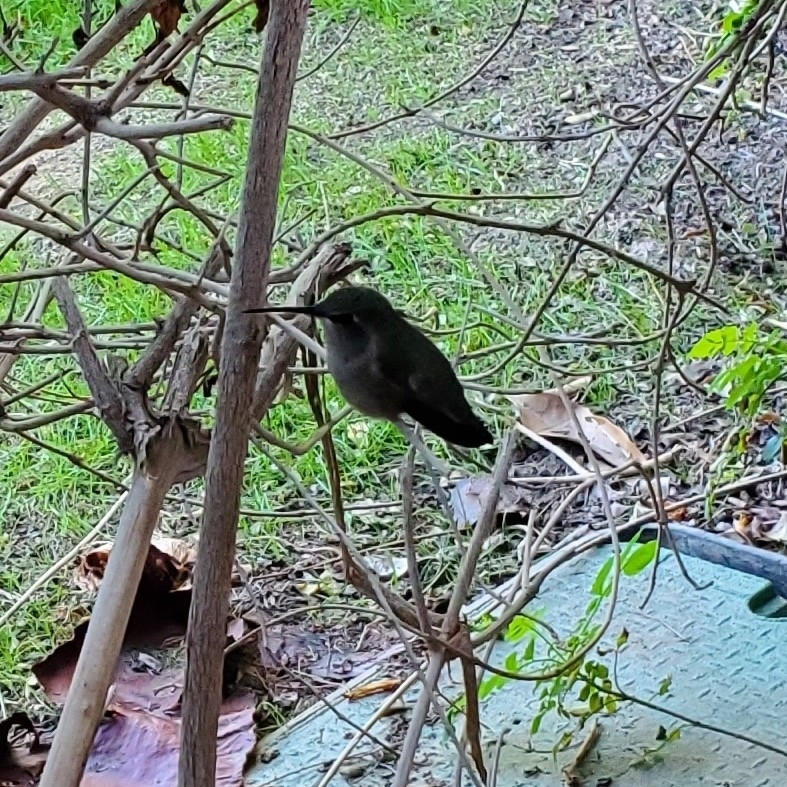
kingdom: Animalia
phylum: Chordata
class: Aves
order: Apodiformes
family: Trochilidae
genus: Calypte
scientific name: Calypte costae
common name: Costa's hummingbird
